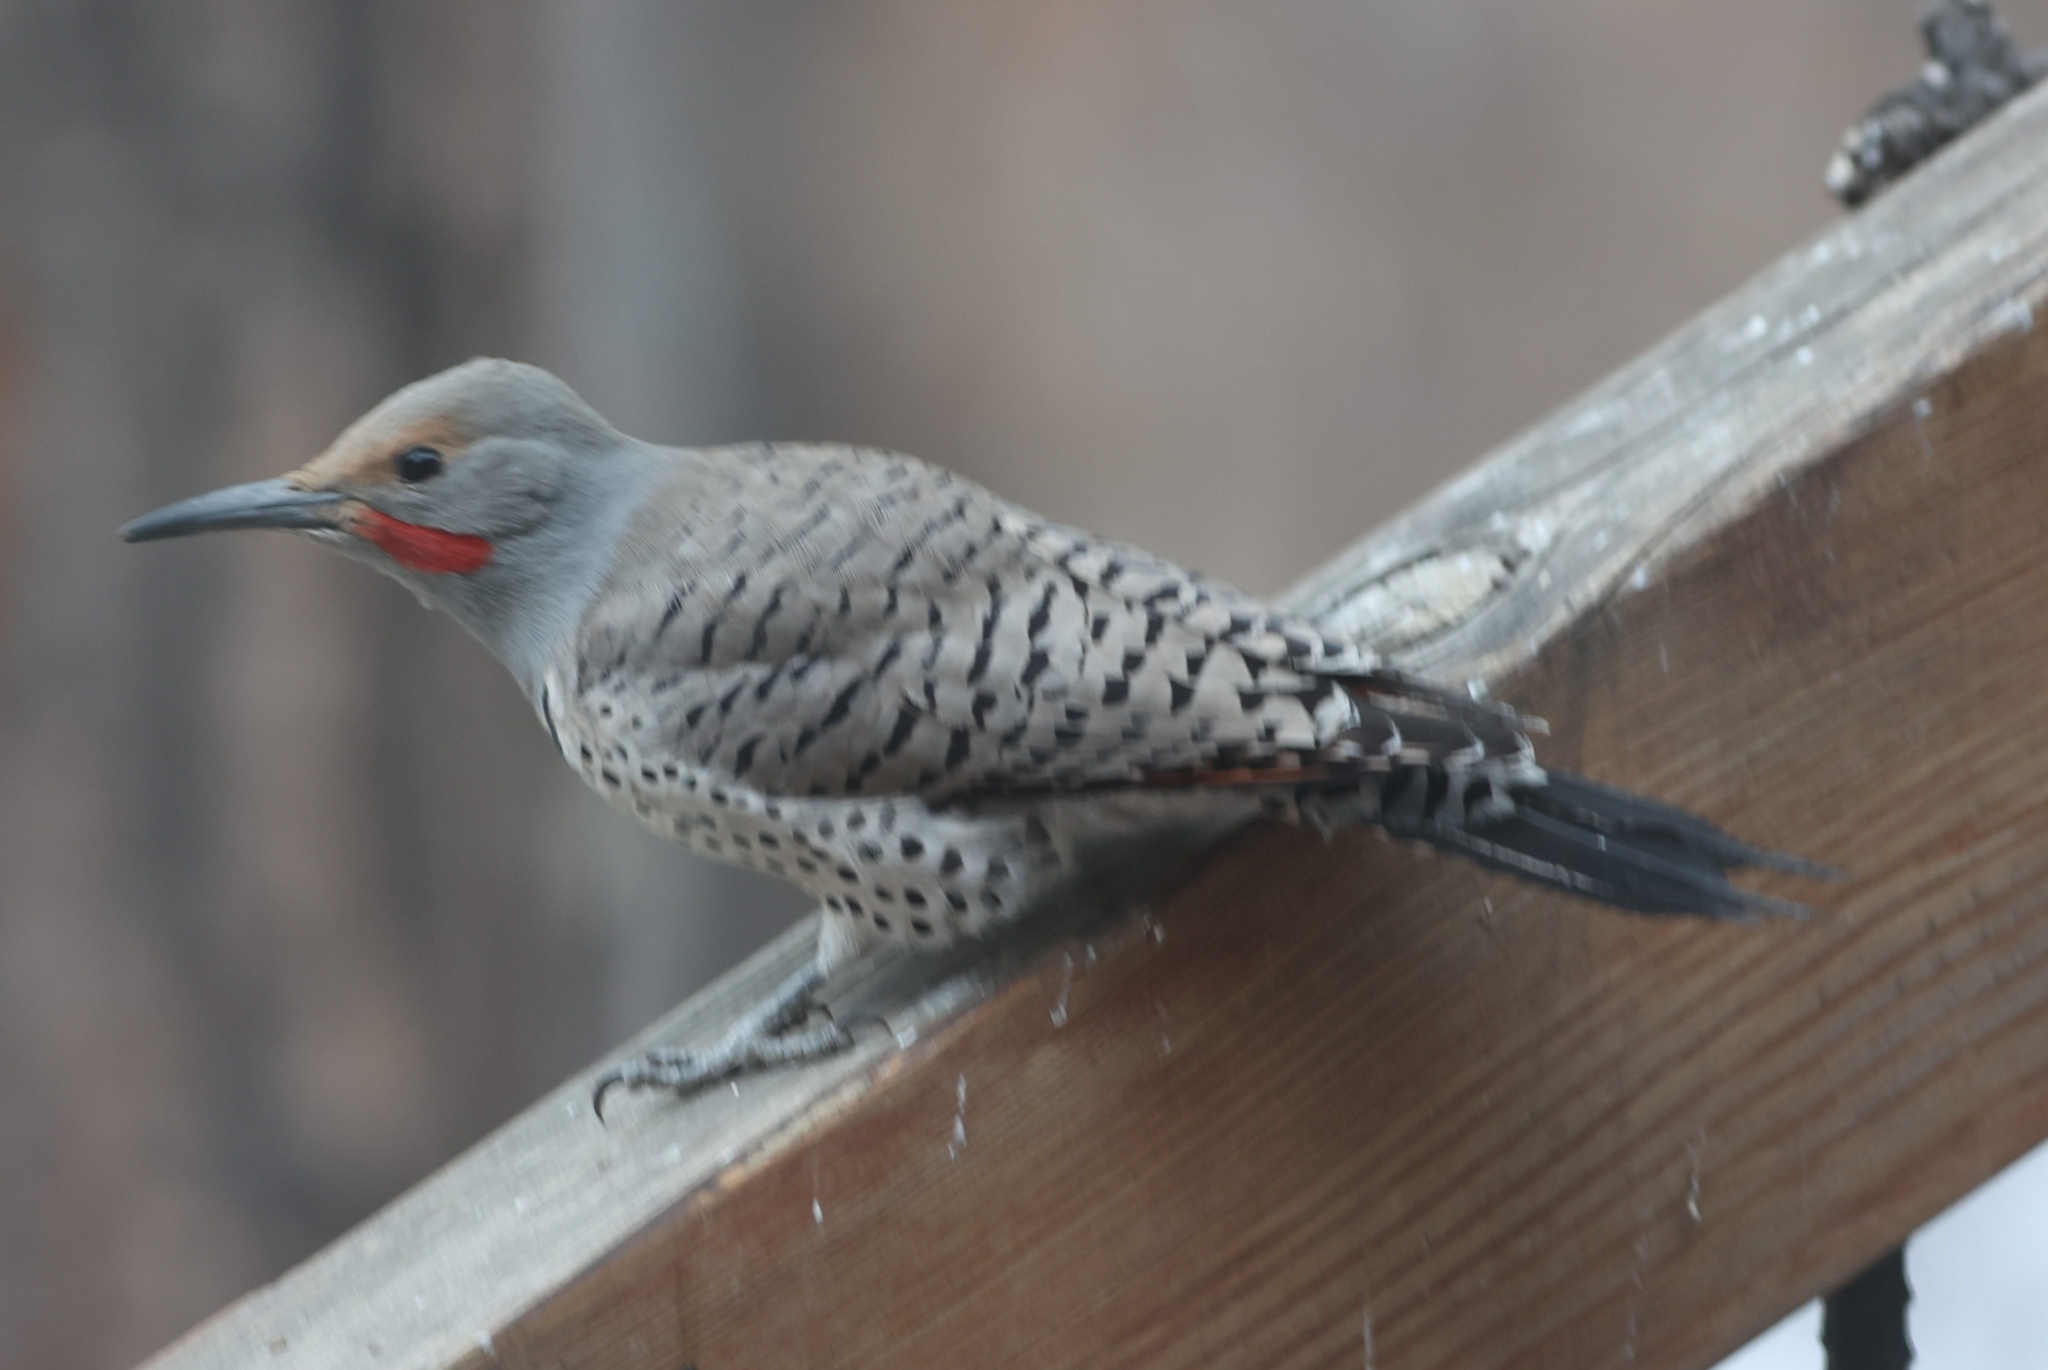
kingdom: Animalia
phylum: Chordata
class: Aves
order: Piciformes
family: Picidae
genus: Colaptes
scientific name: Colaptes auratus
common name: Northern flicker
